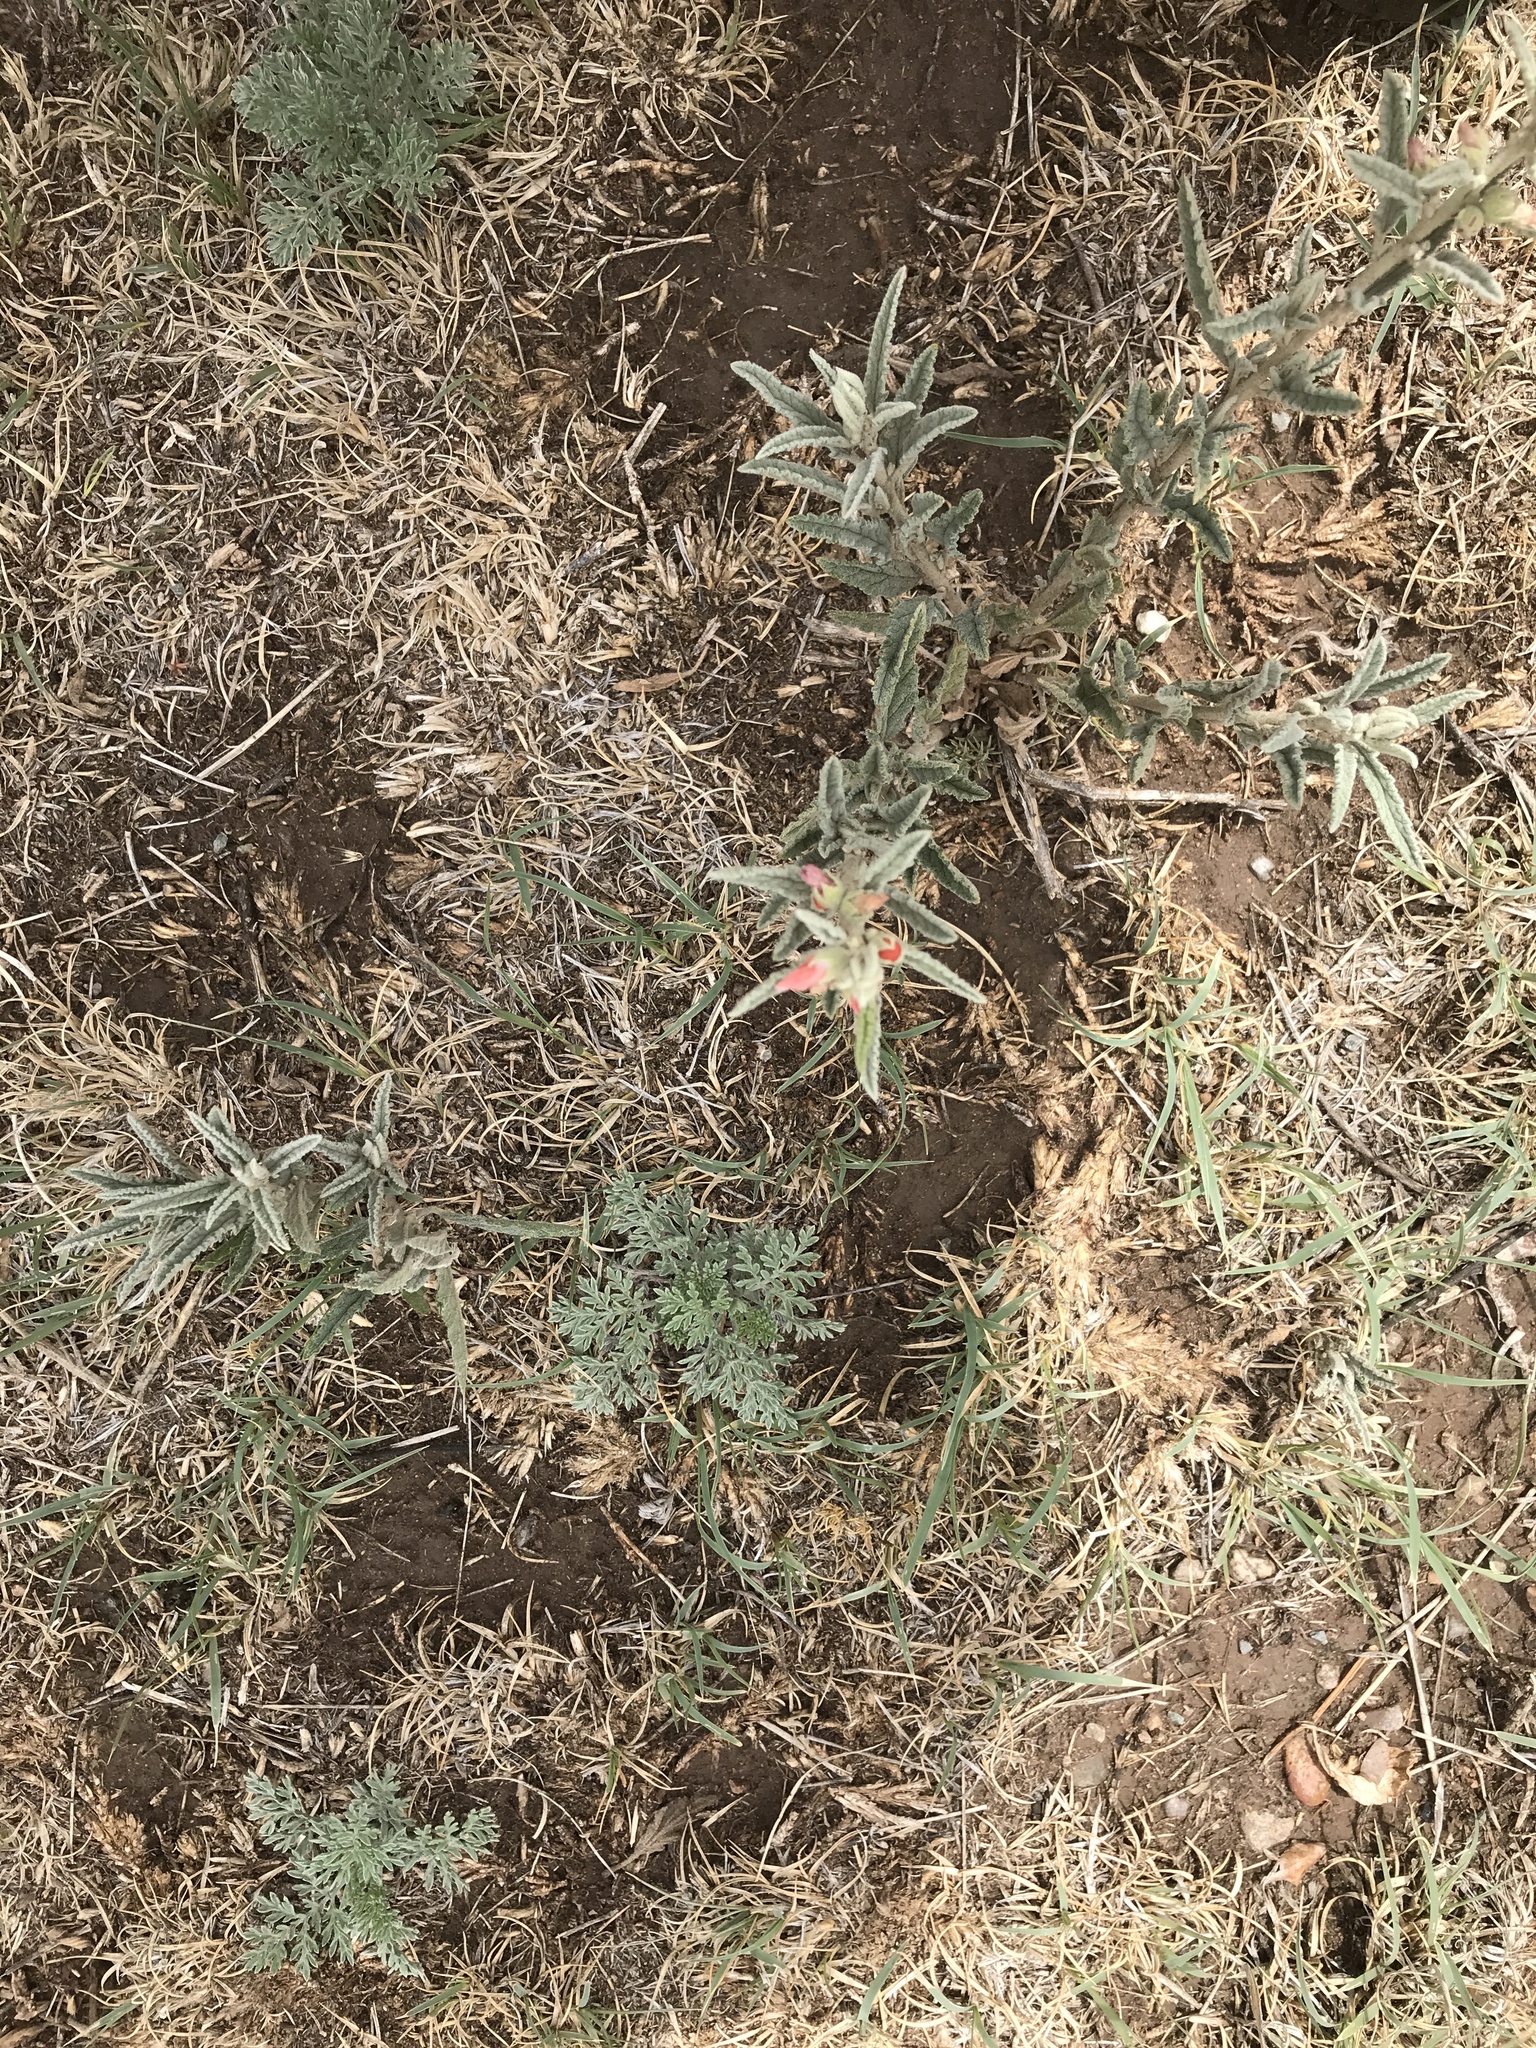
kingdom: Plantae
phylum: Tracheophyta
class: Magnoliopsida
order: Malvales
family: Malvaceae
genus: Sphaeralcea
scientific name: Sphaeralcea angustifolia
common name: Copper globe-mallow
